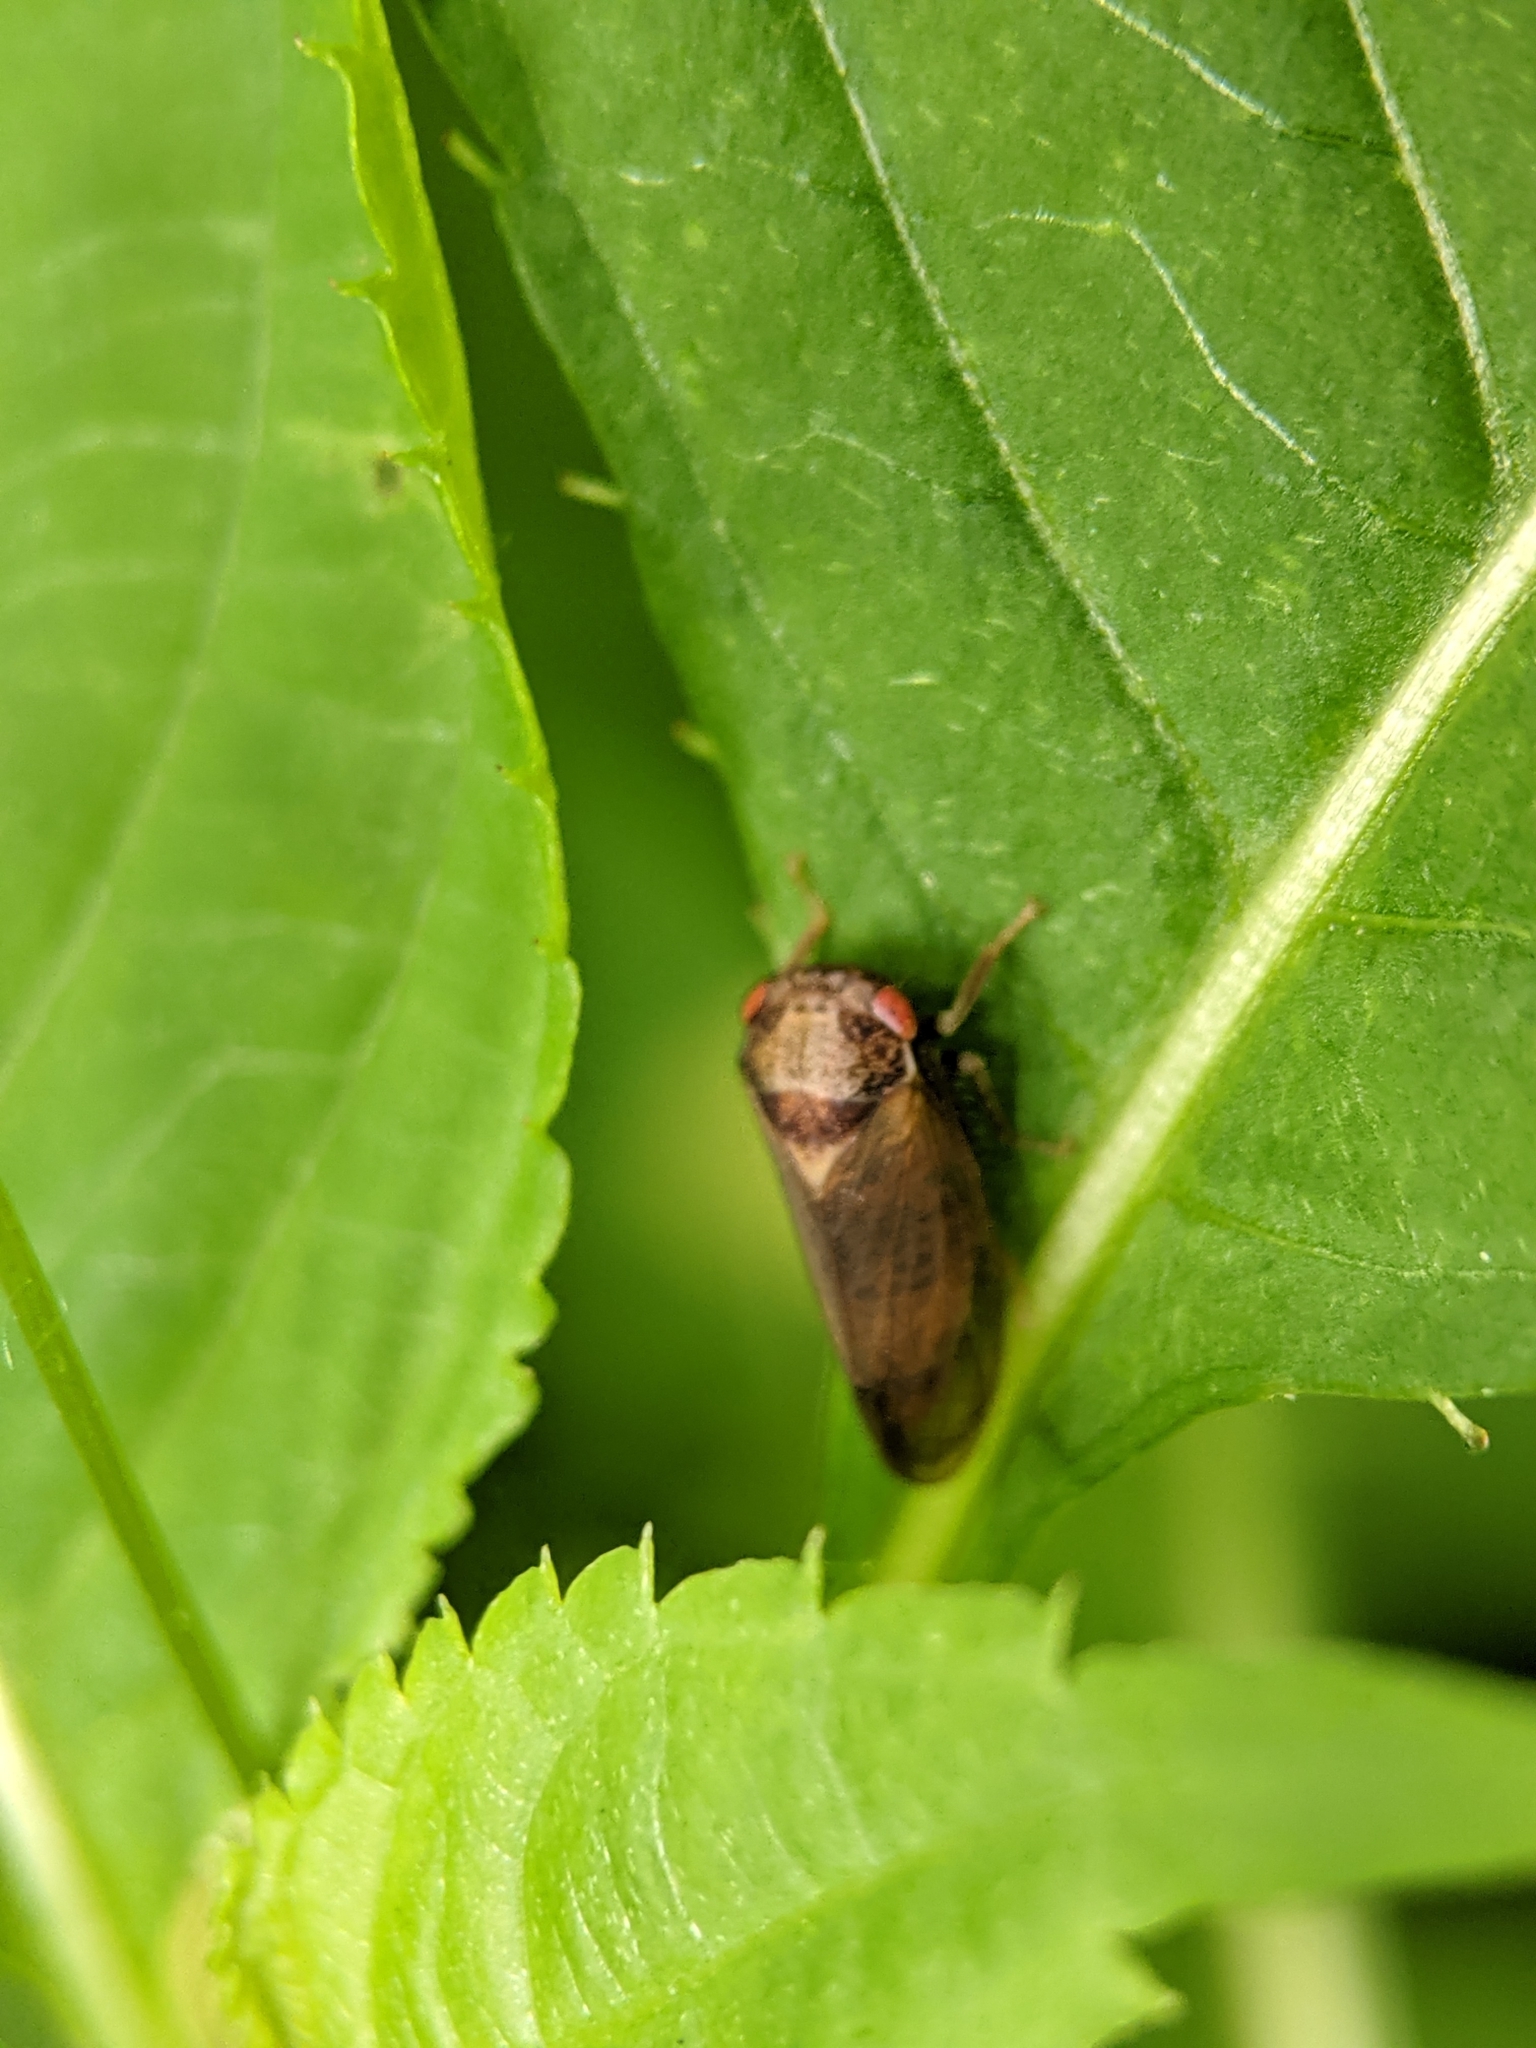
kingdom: Animalia
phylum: Arthropoda
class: Insecta
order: Hemiptera
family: Cicadellidae
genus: Iassus
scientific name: Iassus lanio
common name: Leafhopper
